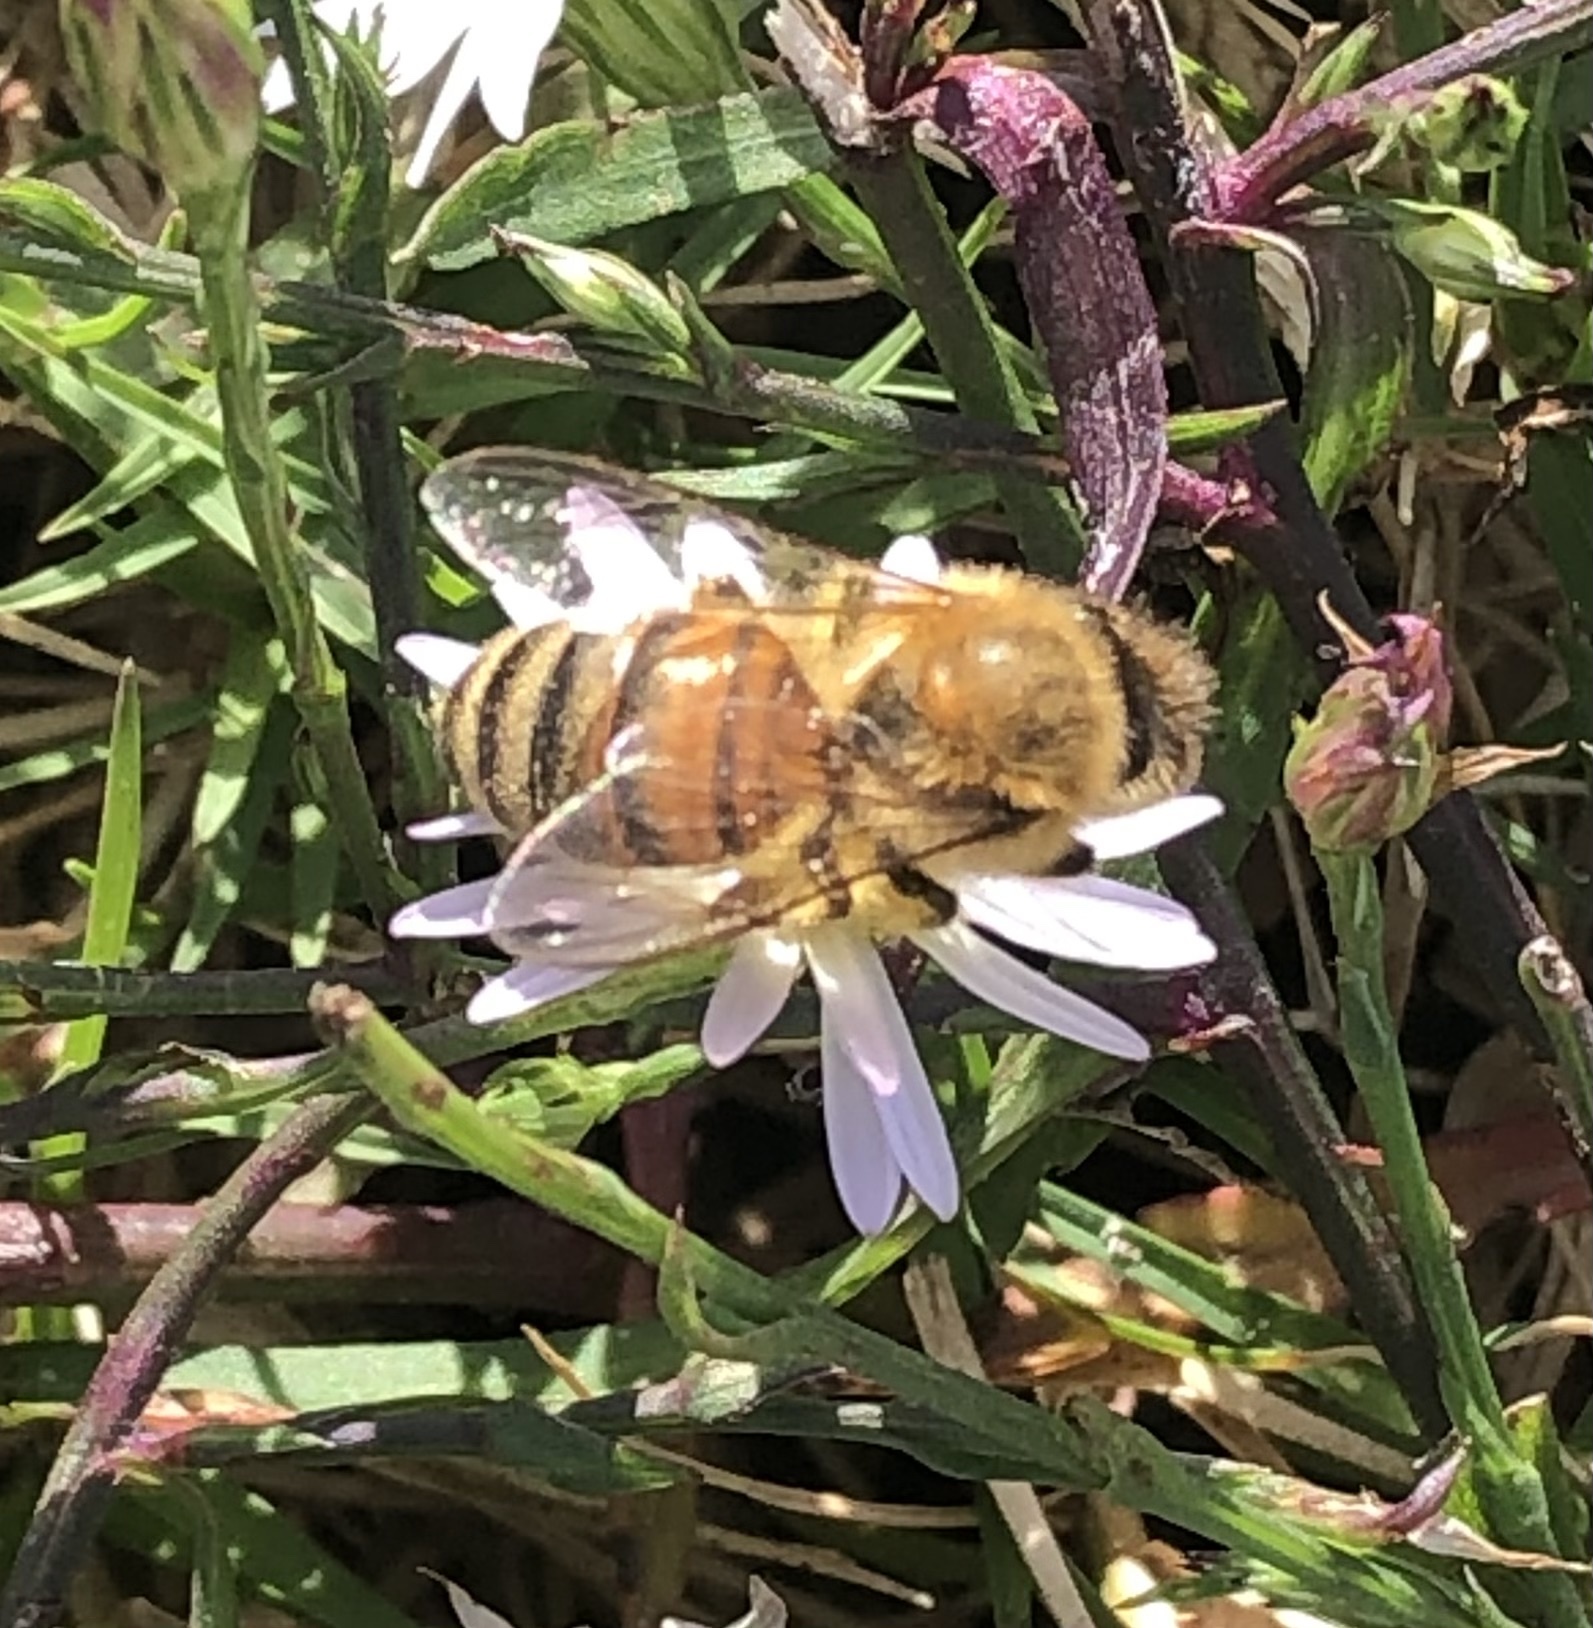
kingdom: Animalia
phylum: Arthropoda
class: Insecta
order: Hymenoptera
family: Apidae
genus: Apis
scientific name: Apis mellifera
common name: Honey bee
